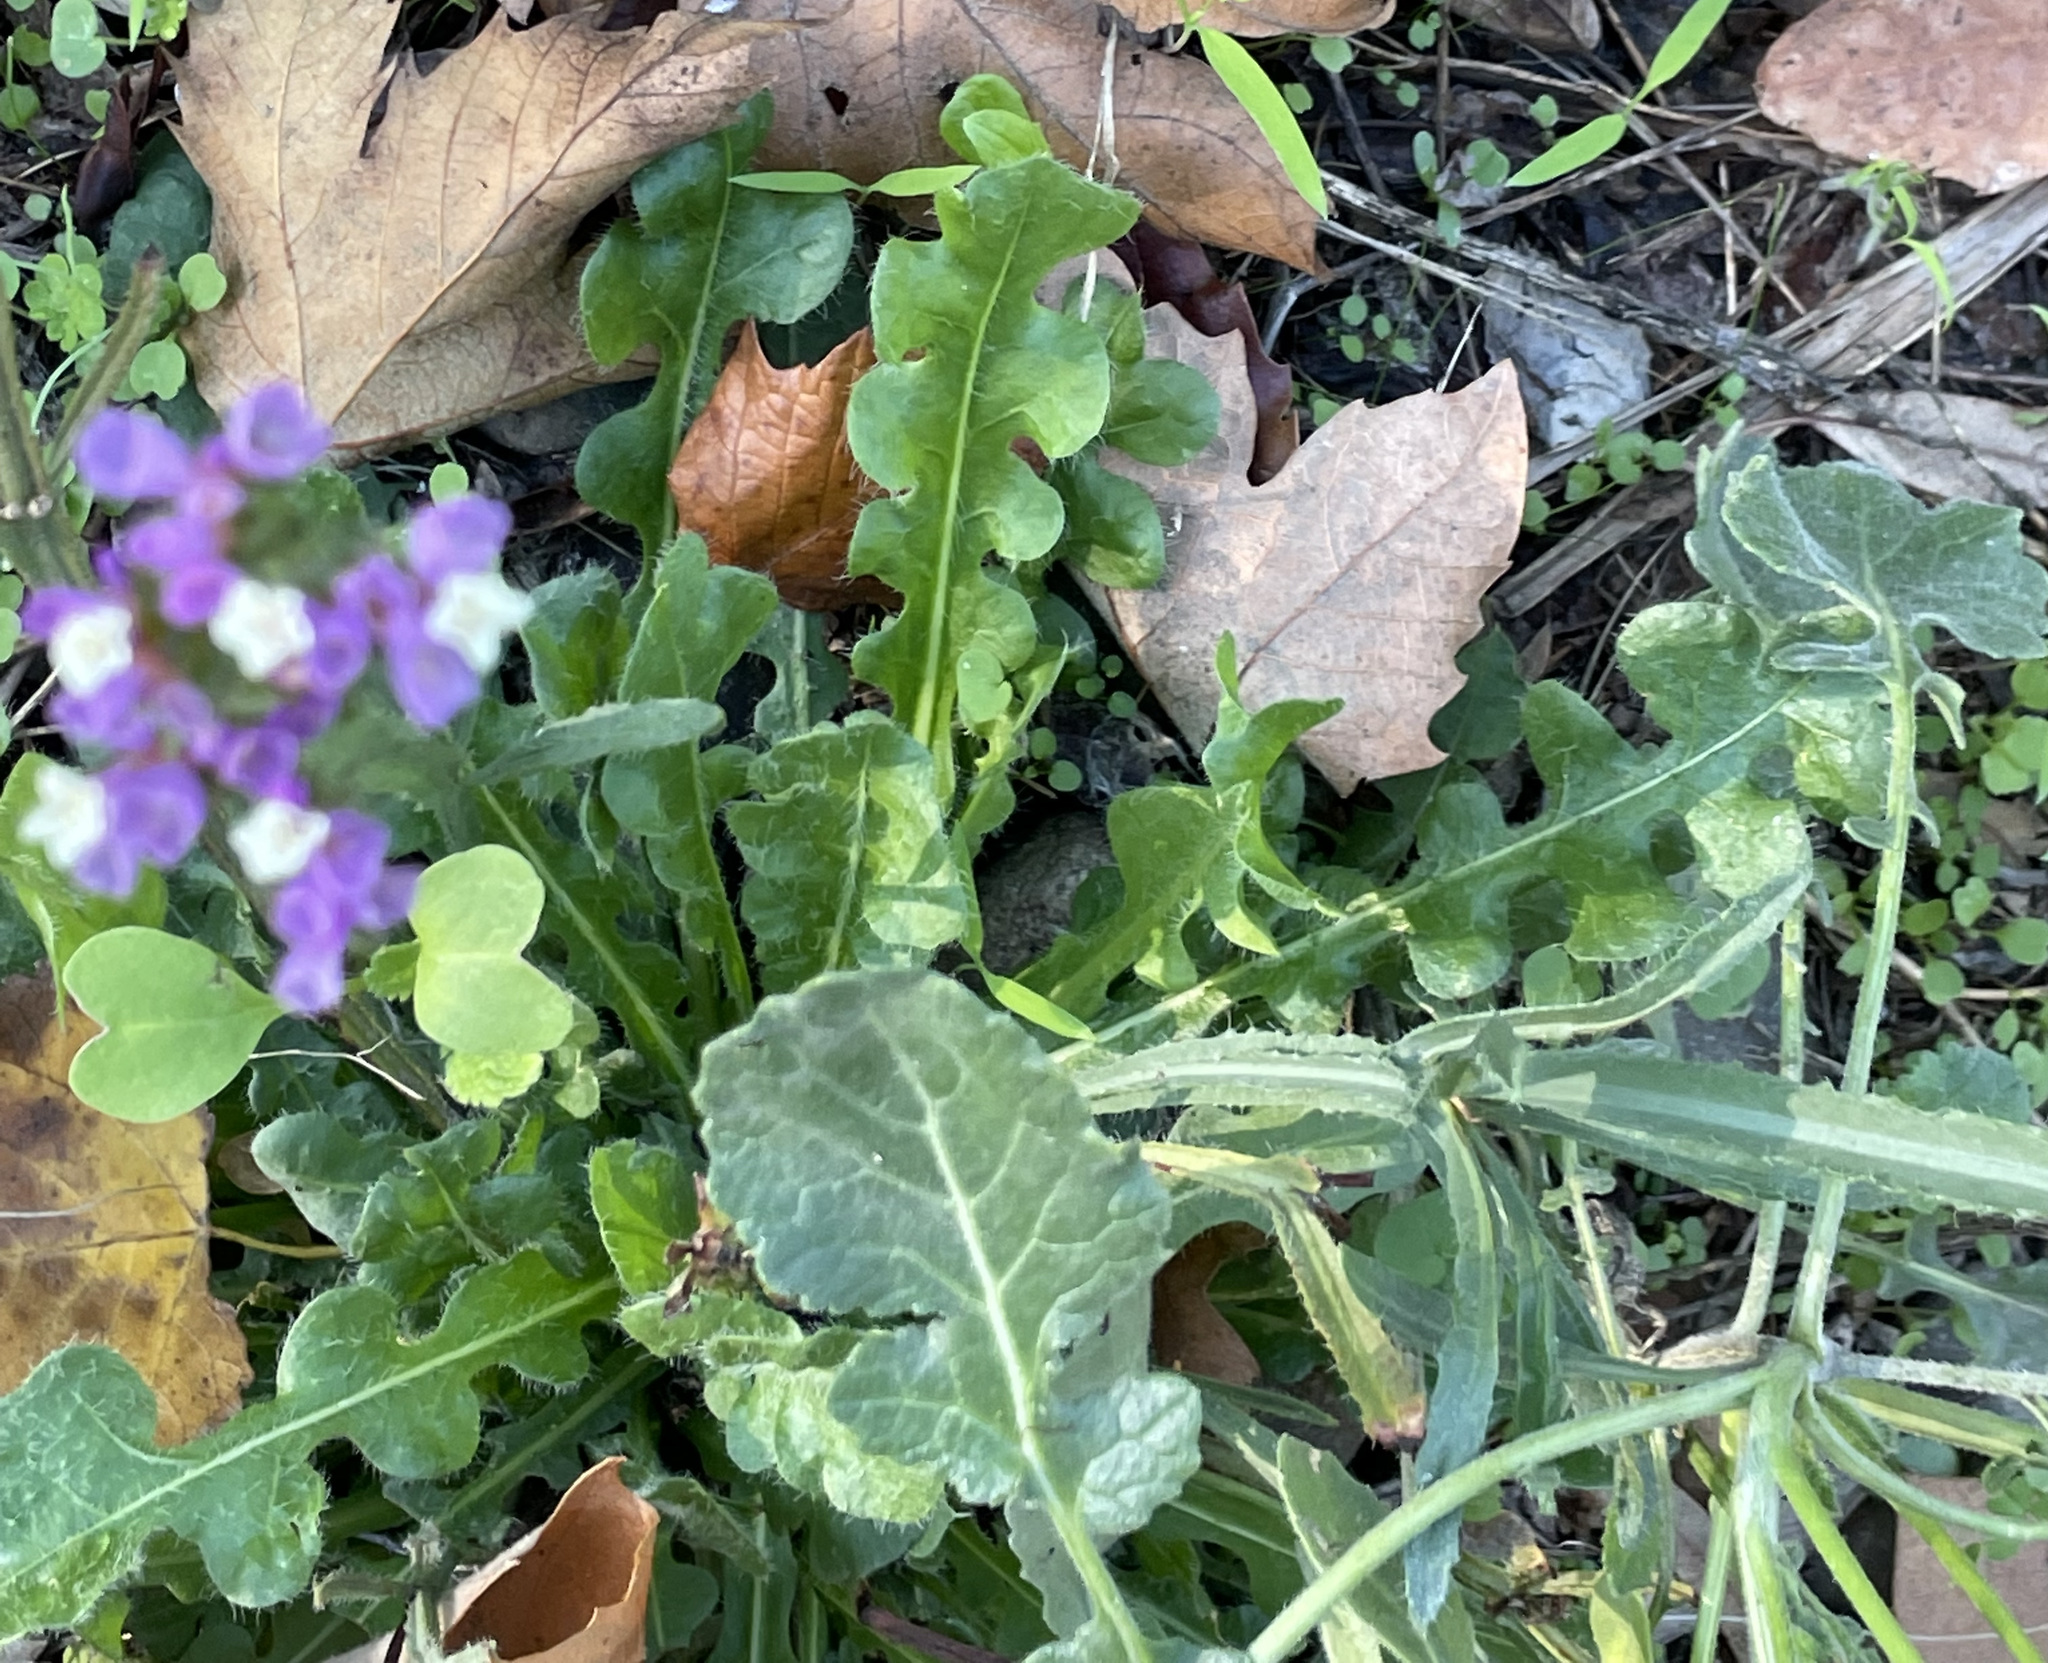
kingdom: Plantae
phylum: Tracheophyta
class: Magnoliopsida
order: Caryophyllales
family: Plumbaginaceae
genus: Limonium
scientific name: Limonium sinuatum
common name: Statice
